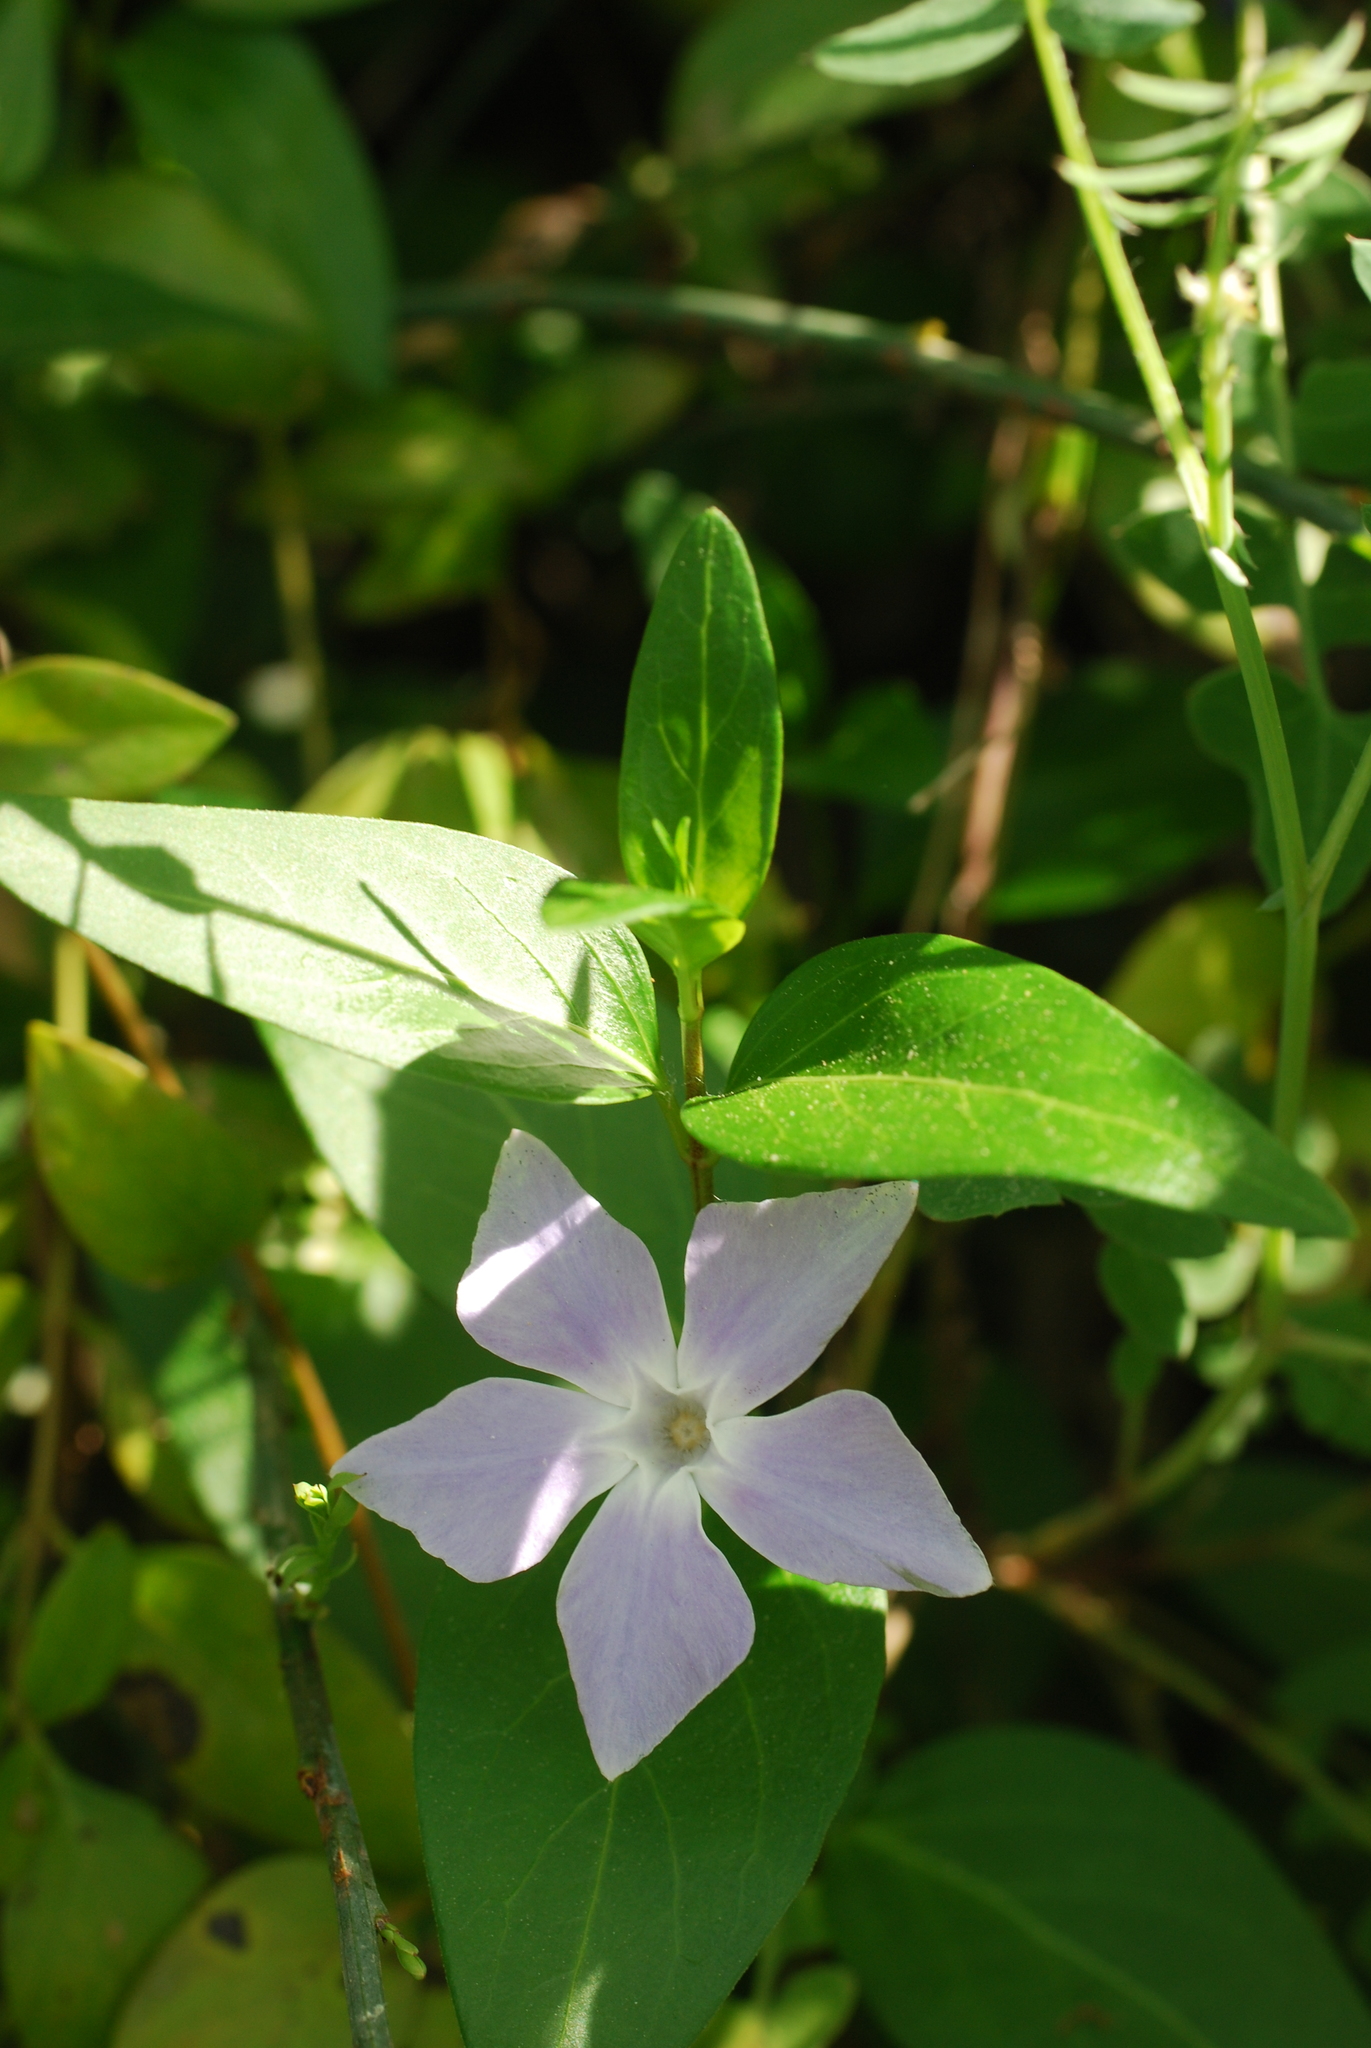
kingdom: Plantae
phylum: Tracheophyta
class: Magnoliopsida
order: Gentianales
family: Apocynaceae
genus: Vinca
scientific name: Vinca major
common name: Greater periwinkle
